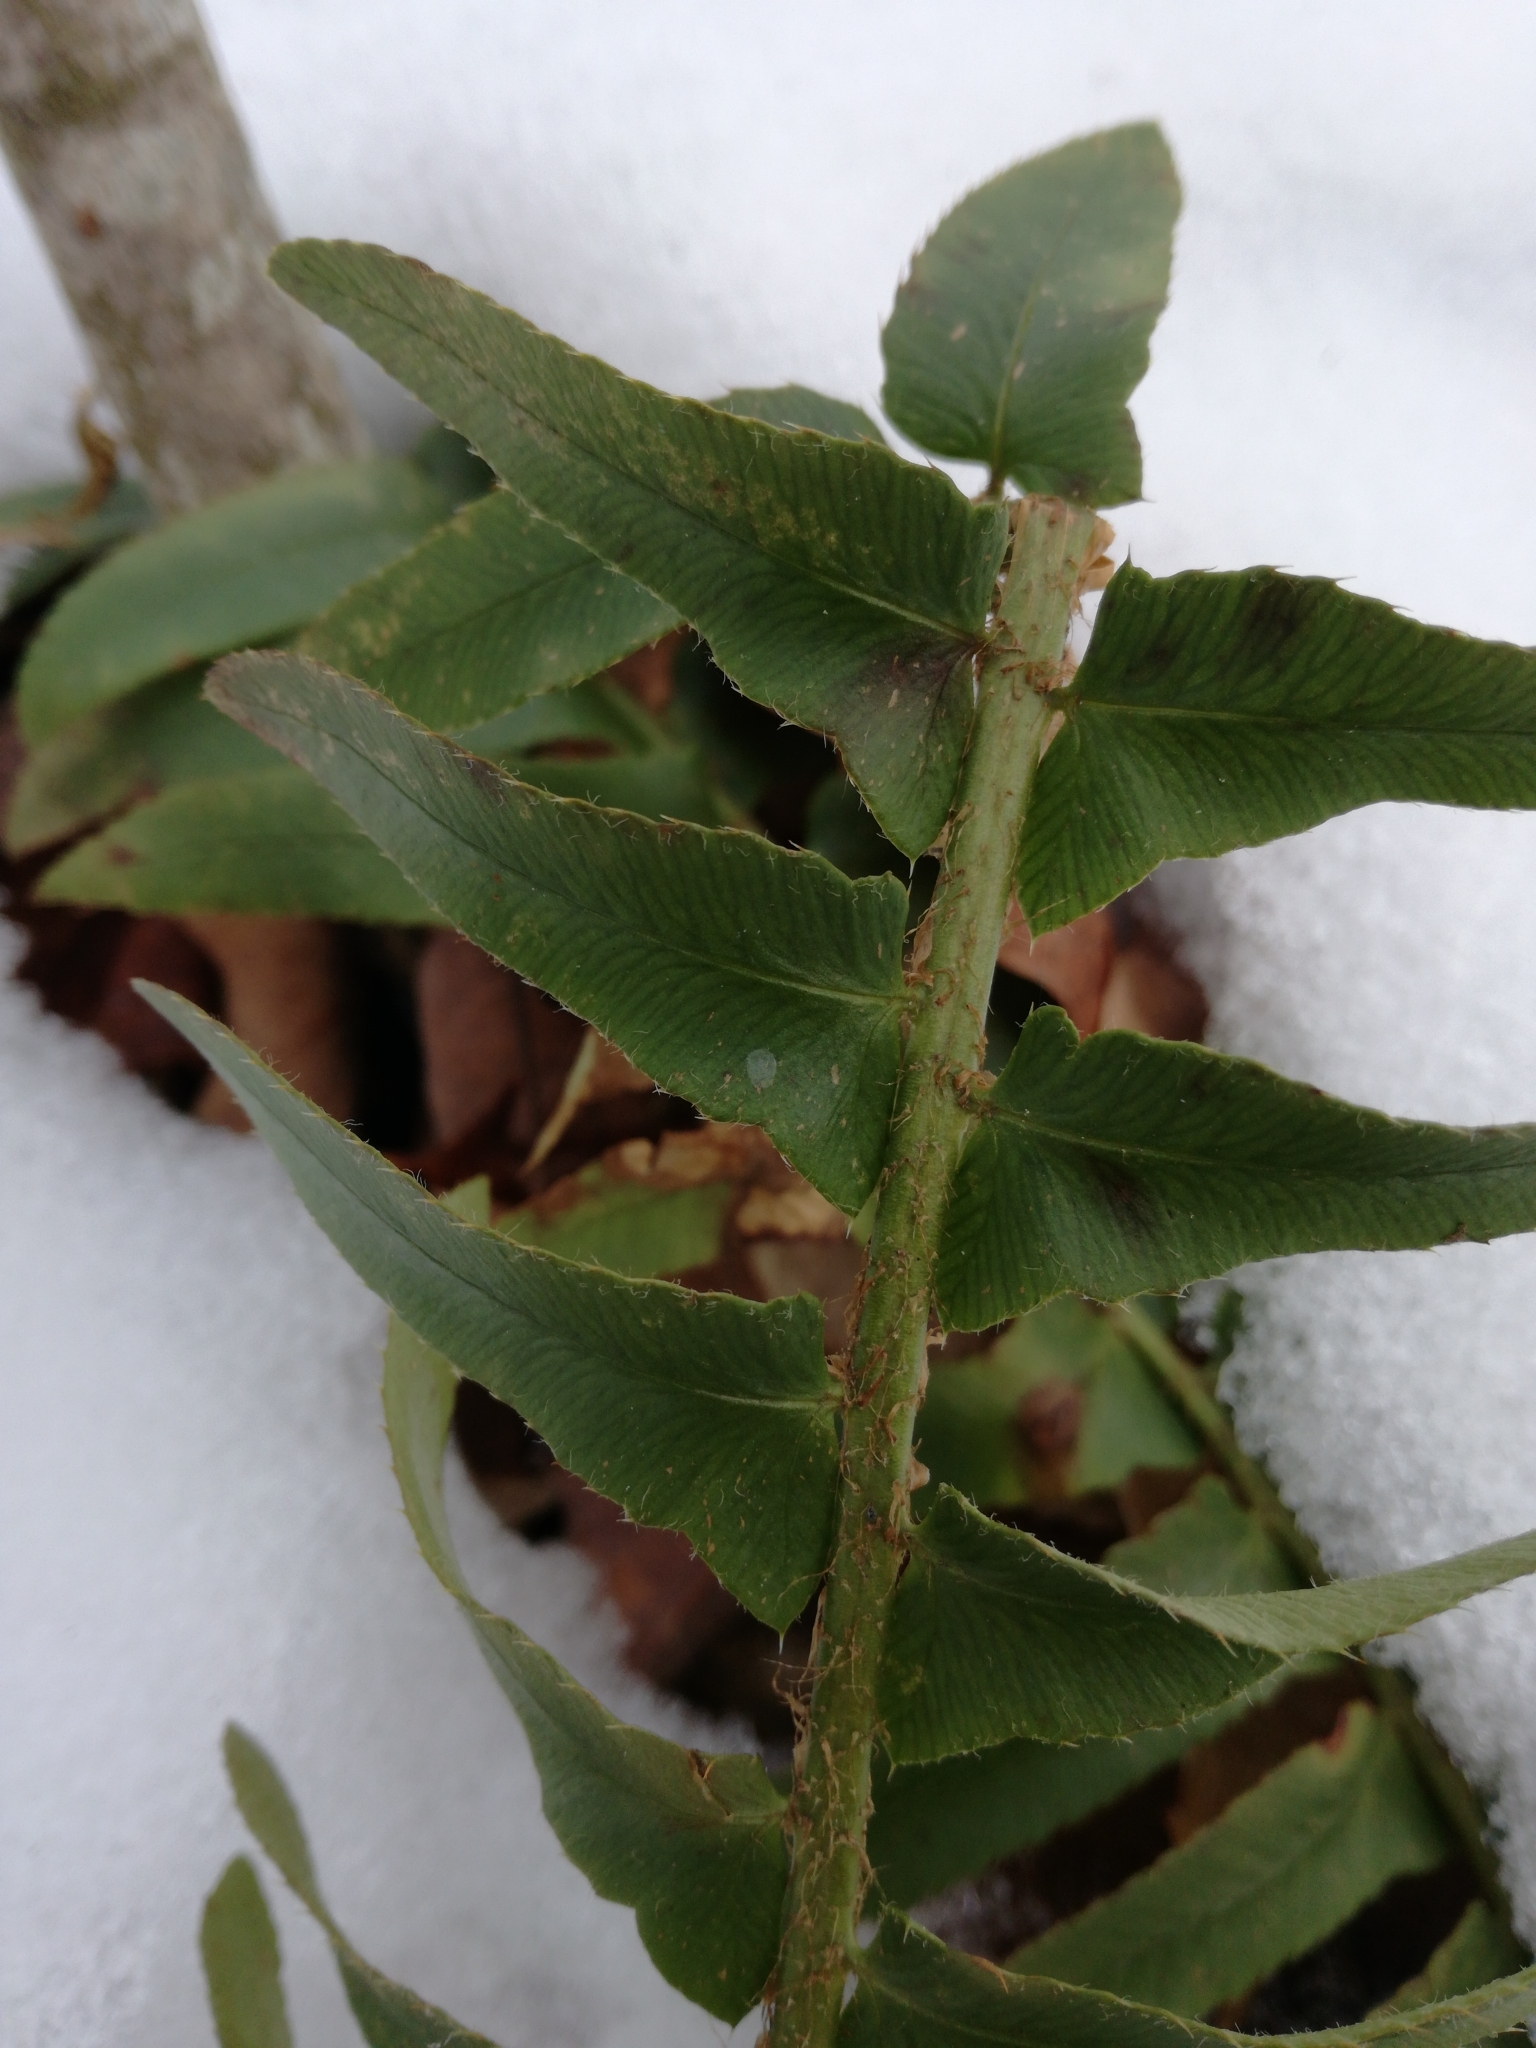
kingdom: Plantae
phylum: Tracheophyta
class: Polypodiopsida
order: Polypodiales
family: Dryopteridaceae
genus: Polystichum
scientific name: Polystichum acrostichoides
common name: Christmas fern
